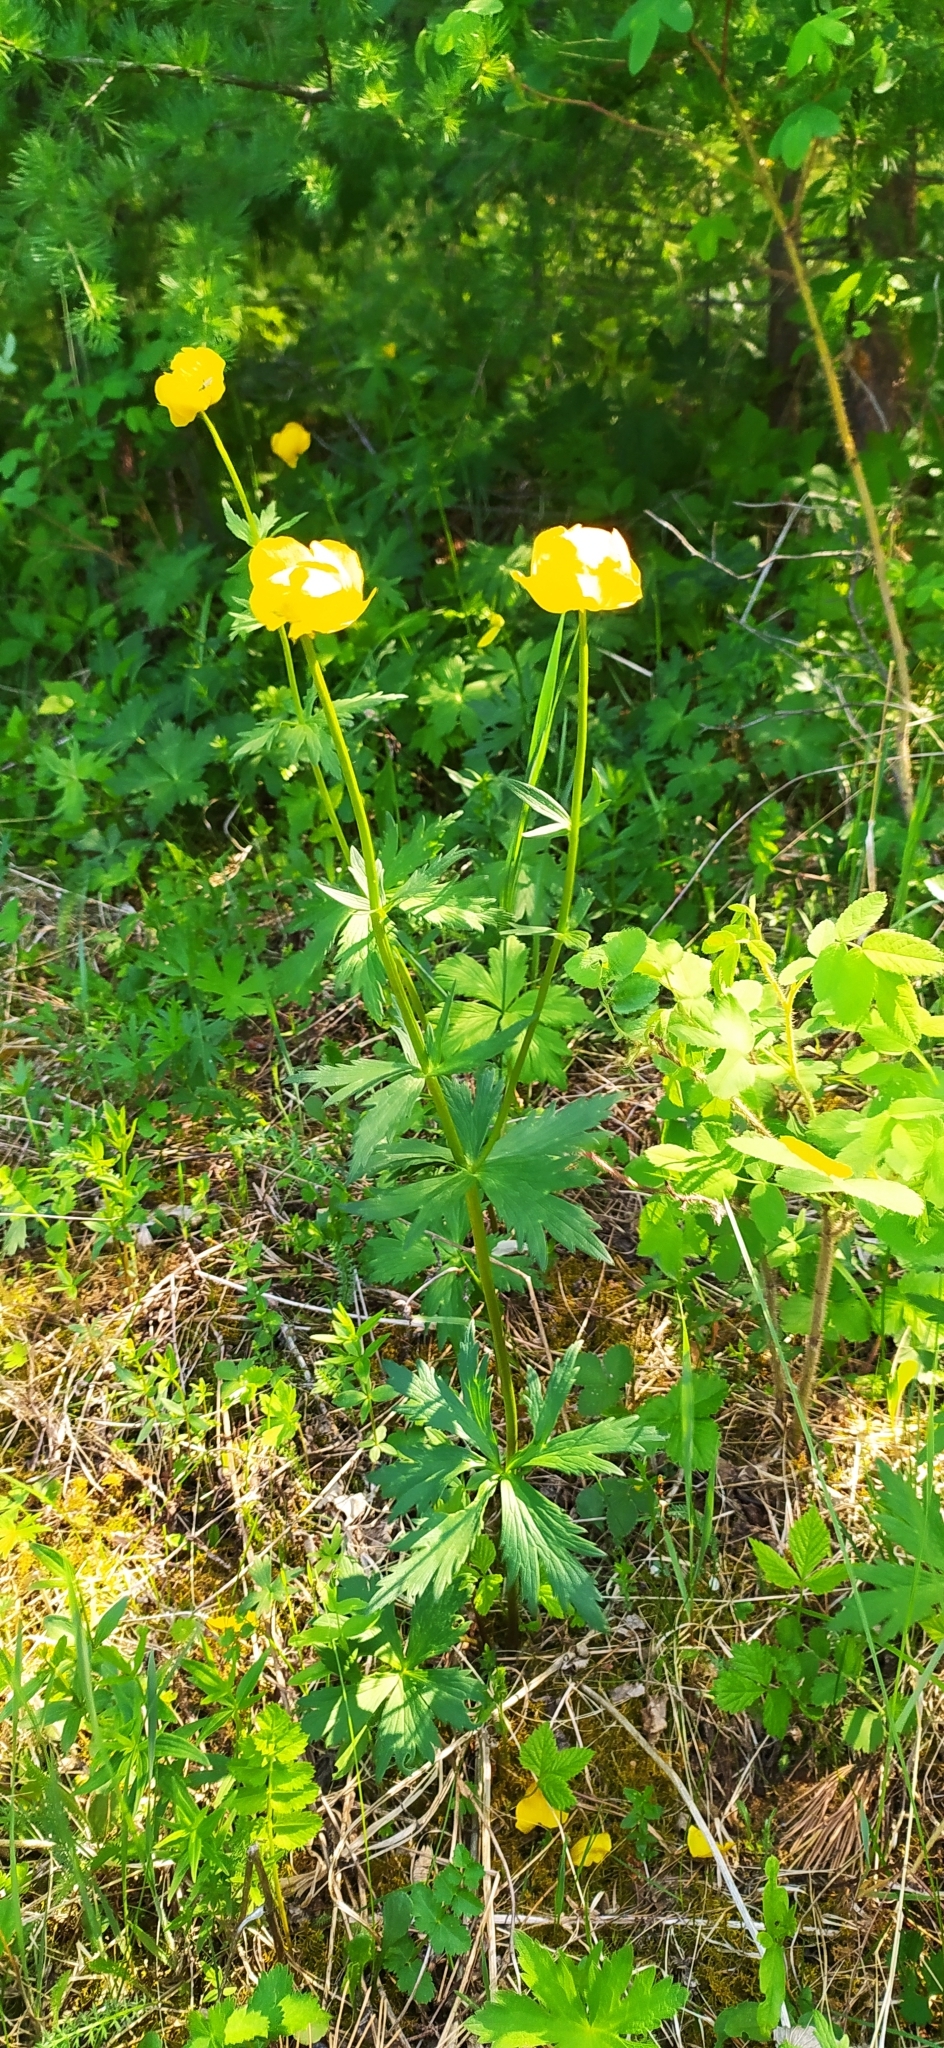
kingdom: Plantae
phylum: Tracheophyta
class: Magnoliopsida
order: Ranunculales
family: Ranunculaceae
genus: Trollius
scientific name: Trollius europaeus
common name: European globeflower
